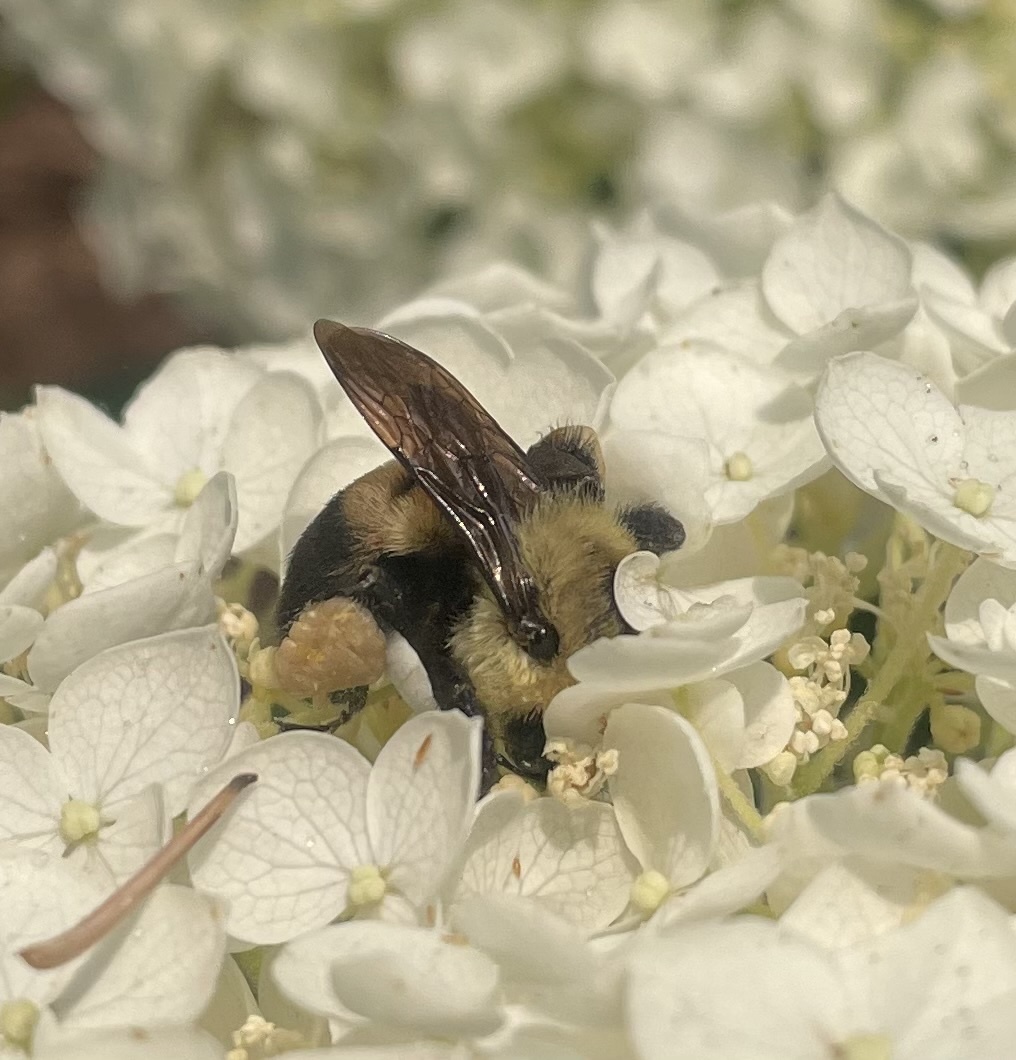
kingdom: Animalia
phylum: Arthropoda
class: Insecta
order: Hymenoptera
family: Apidae
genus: Bombus
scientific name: Bombus griseocollis
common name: Brown-belted bumble bee
